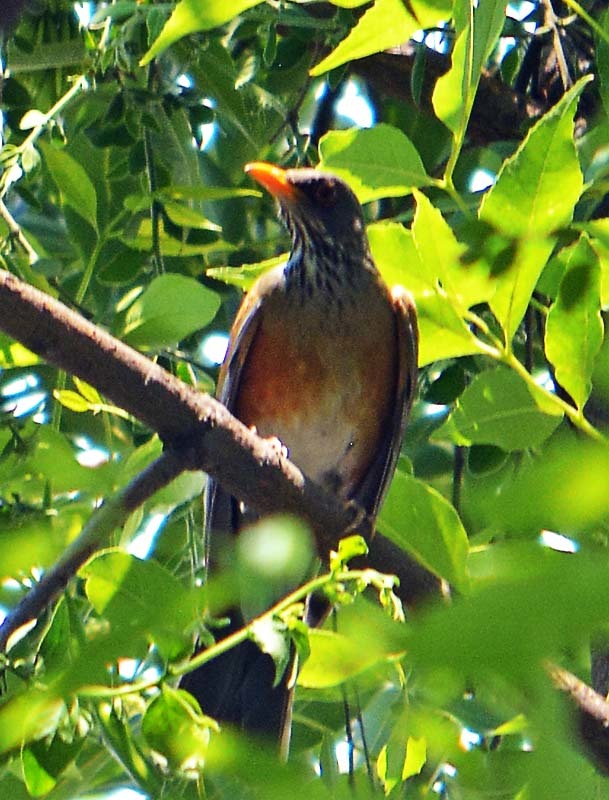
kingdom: Animalia
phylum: Chordata
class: Aves
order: Passeriformes
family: Turdidae
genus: Turdus
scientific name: Turdus rufopalliatus
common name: Rufous-backed robin
